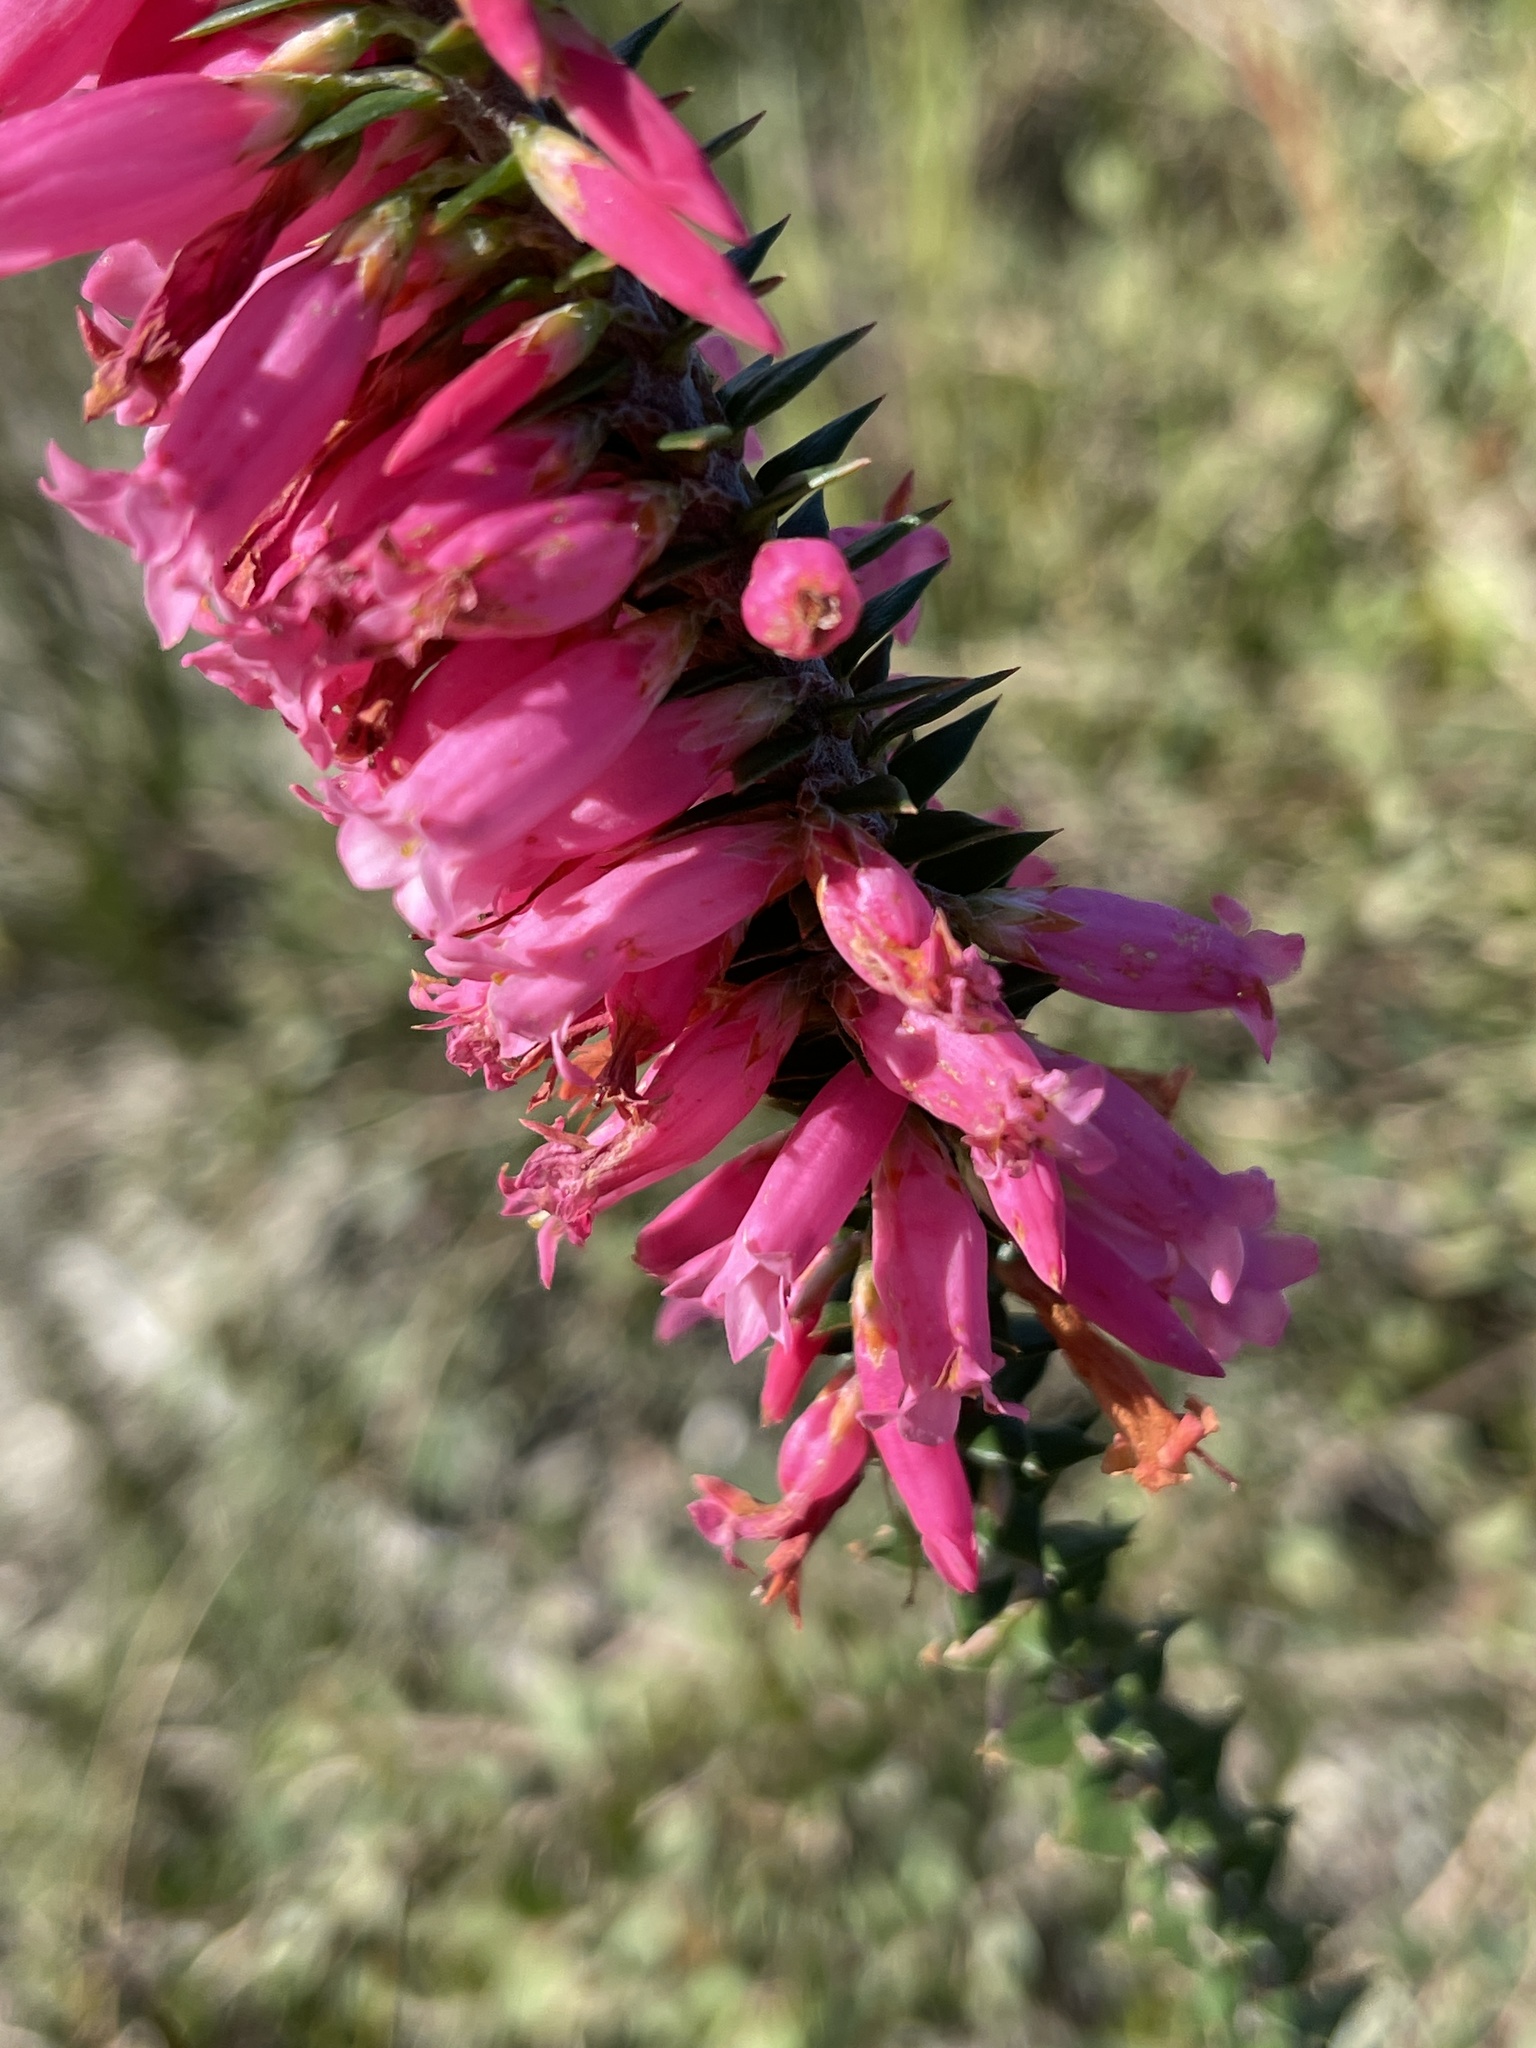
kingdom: Plantae
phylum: Tracheophyta
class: Magnoliopsida
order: Ericales
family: Ericaceae
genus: Epacris
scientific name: Epacris impressa
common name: Common-heath
